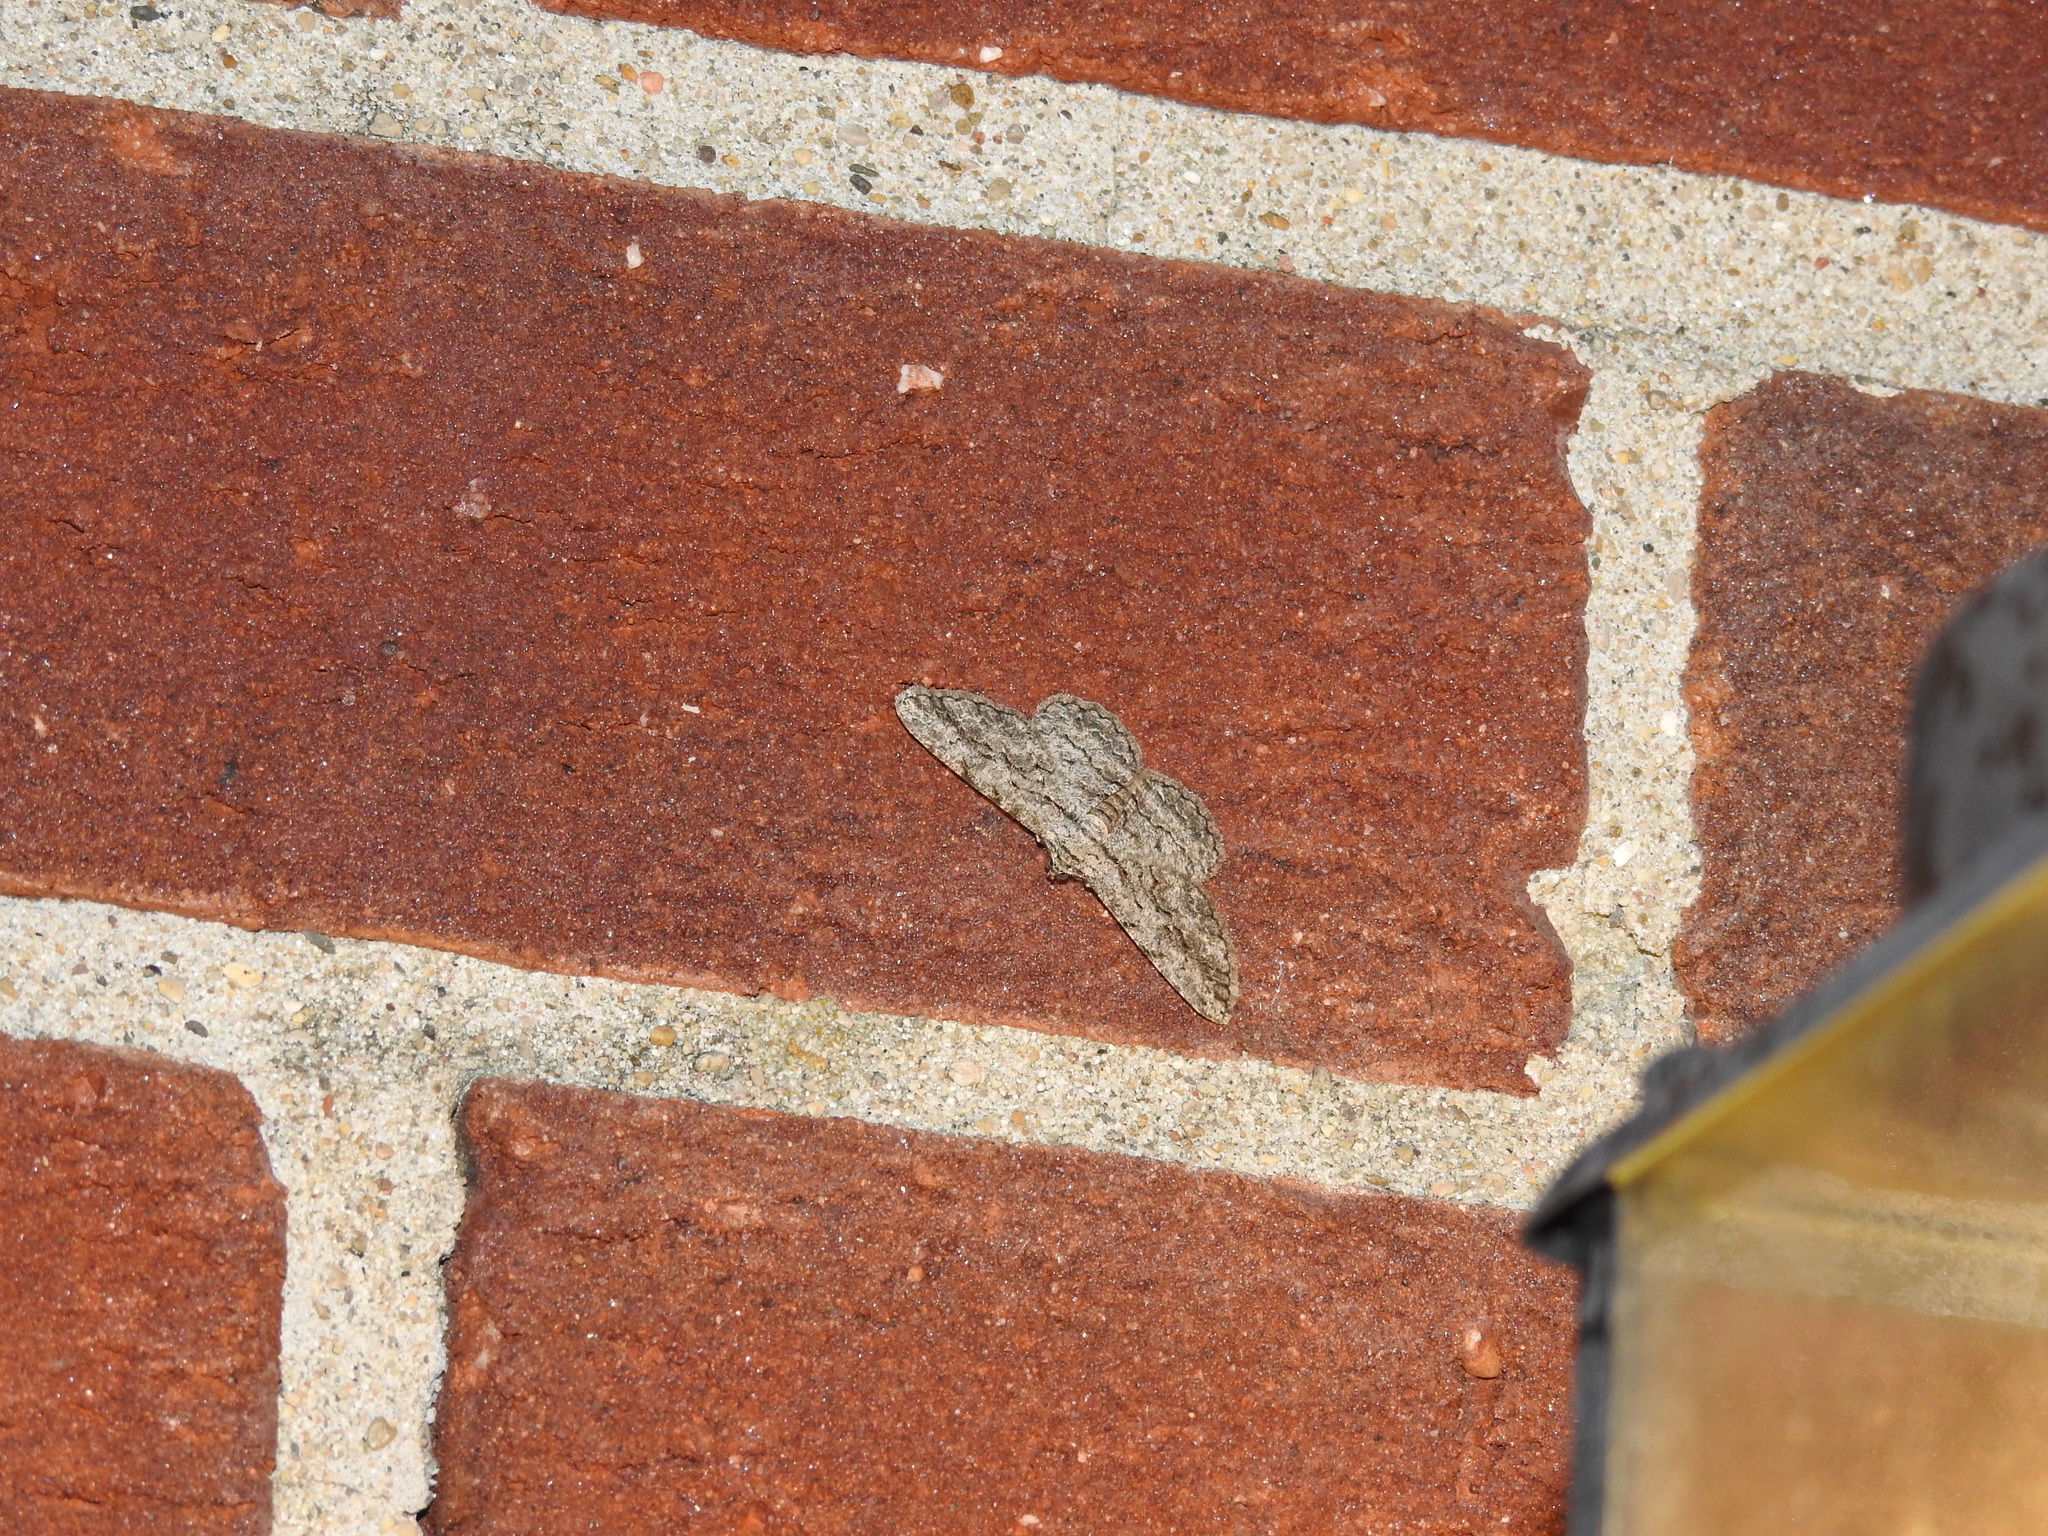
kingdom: Animalia
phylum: Arthropoda
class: Insecta
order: Lepidoptera
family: Geometridae
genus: Anavitrinella
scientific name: Anavitrinella pampinaria
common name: Common gray
